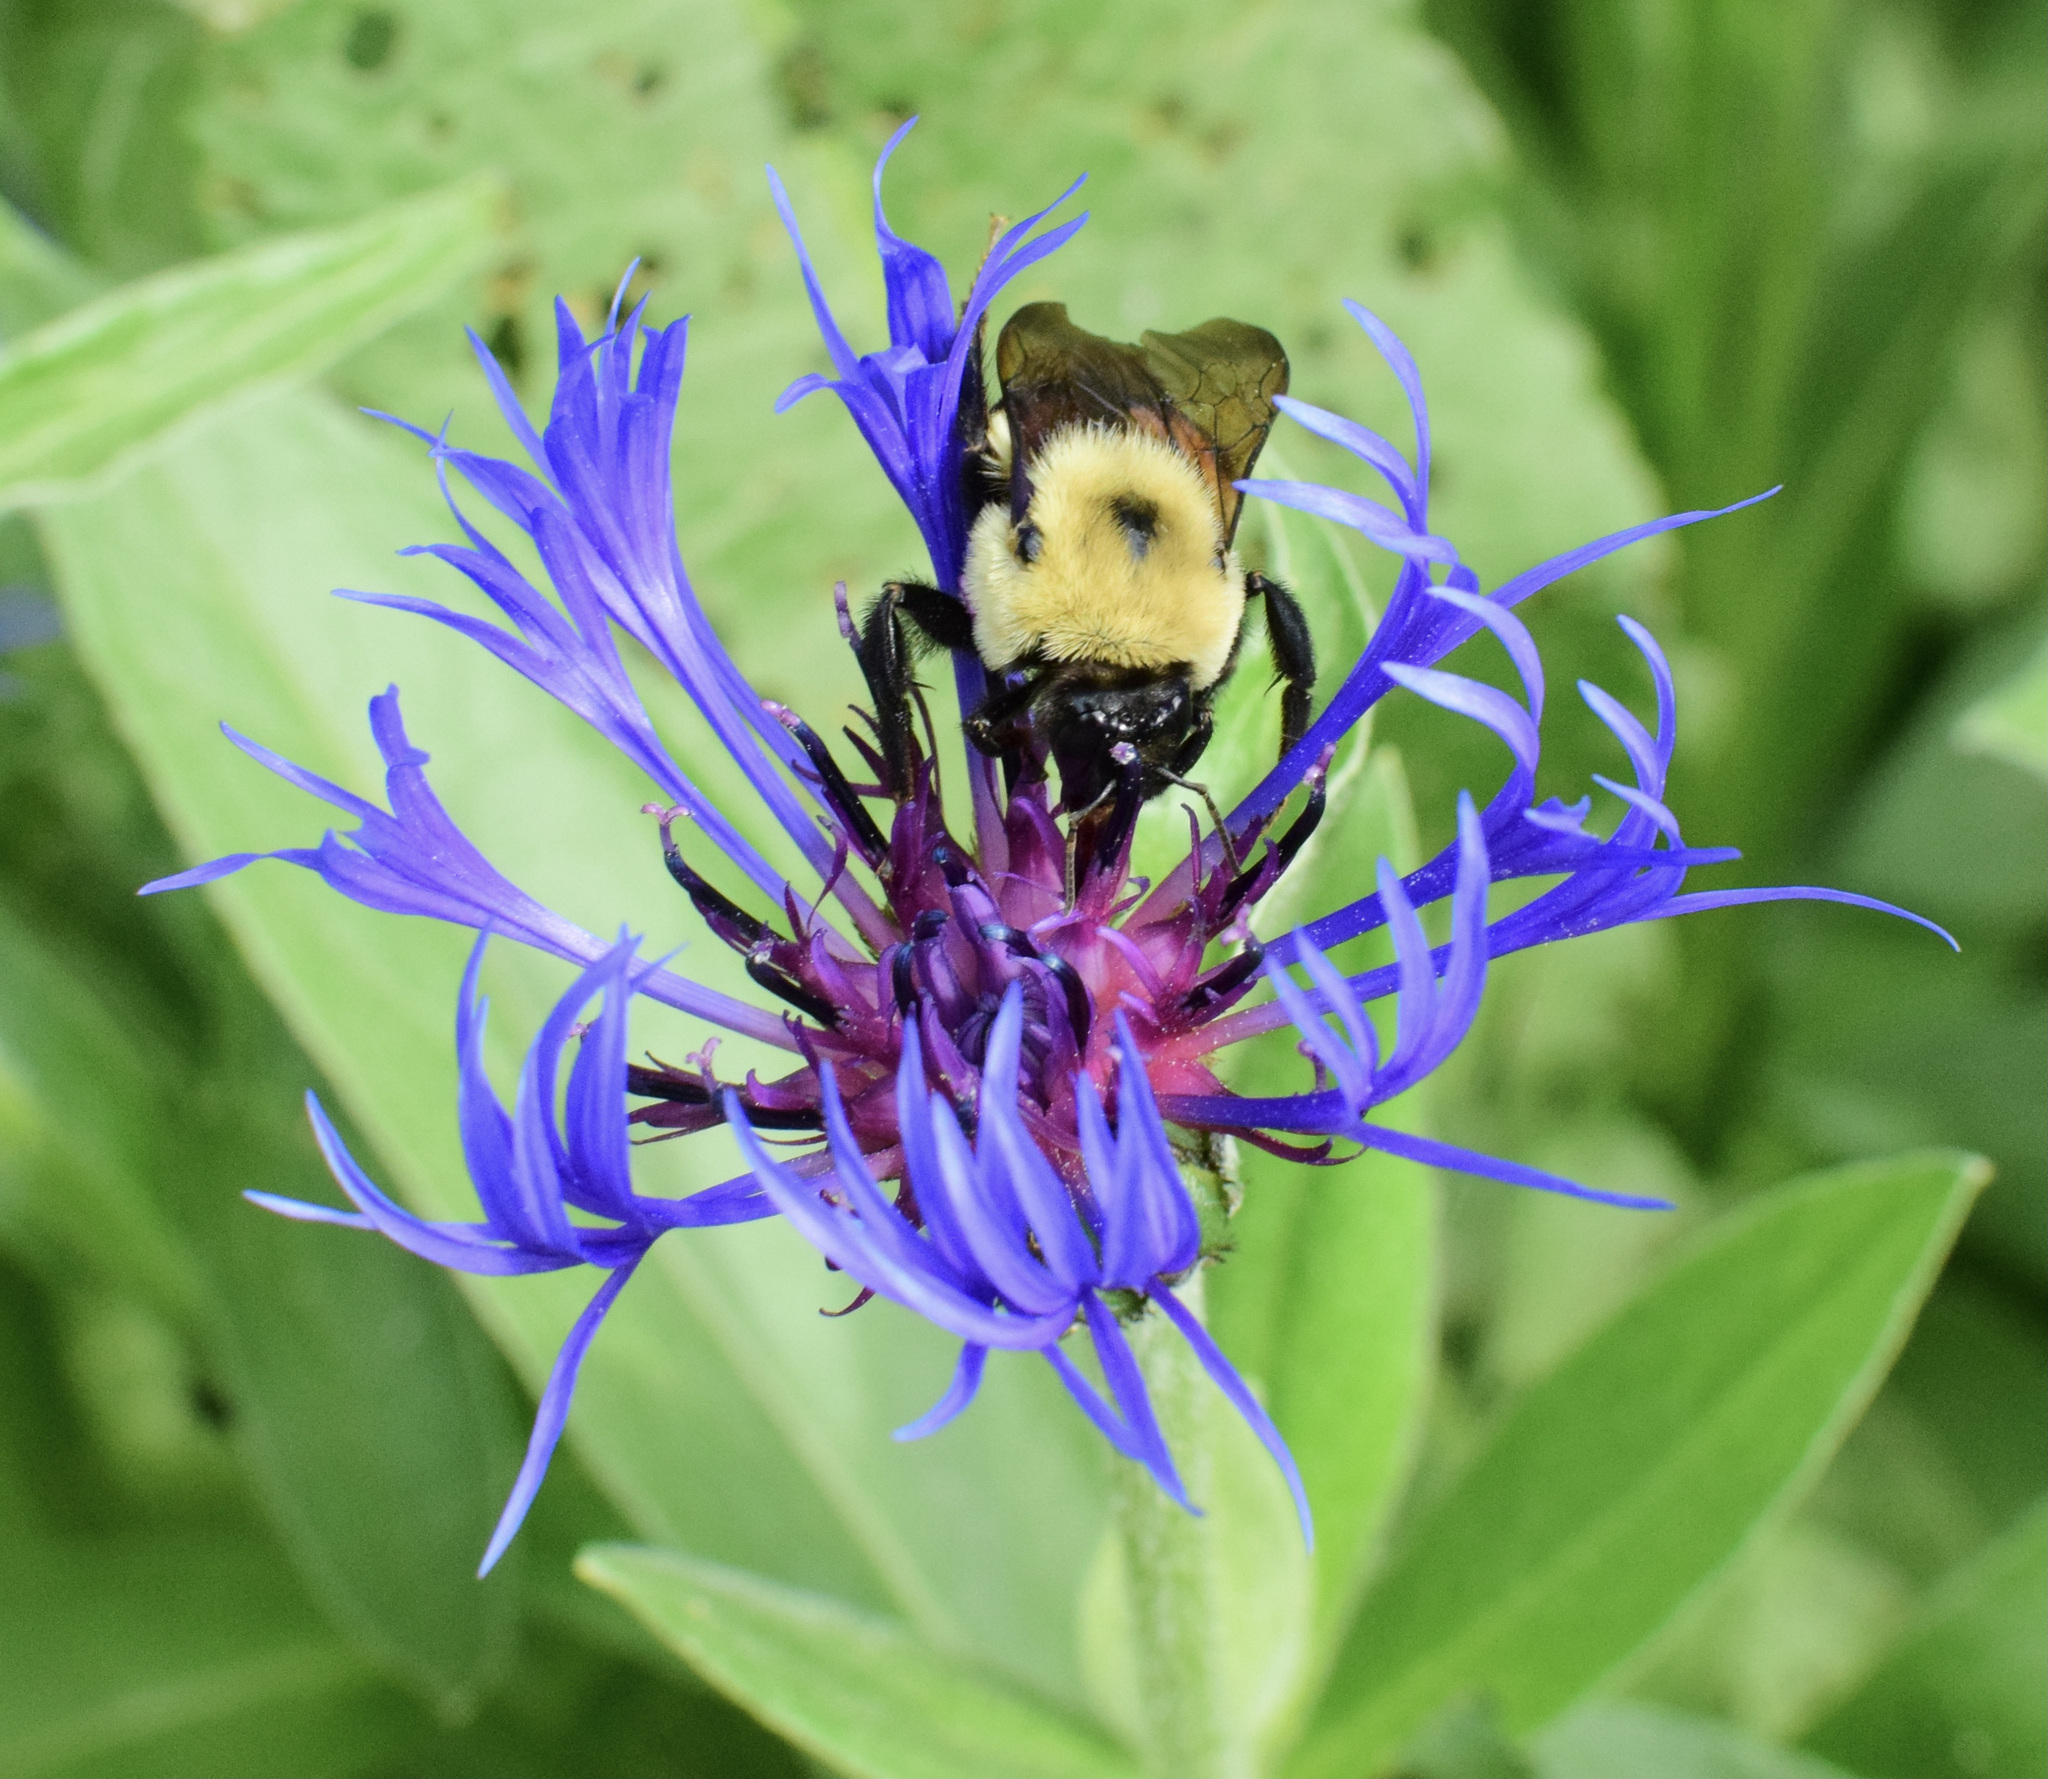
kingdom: Animalia
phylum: Arthropoda
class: Insecta
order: Hymenoptera
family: Apidae
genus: Bombus
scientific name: Bombus griseocollis
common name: Brown-belted bumble bee
